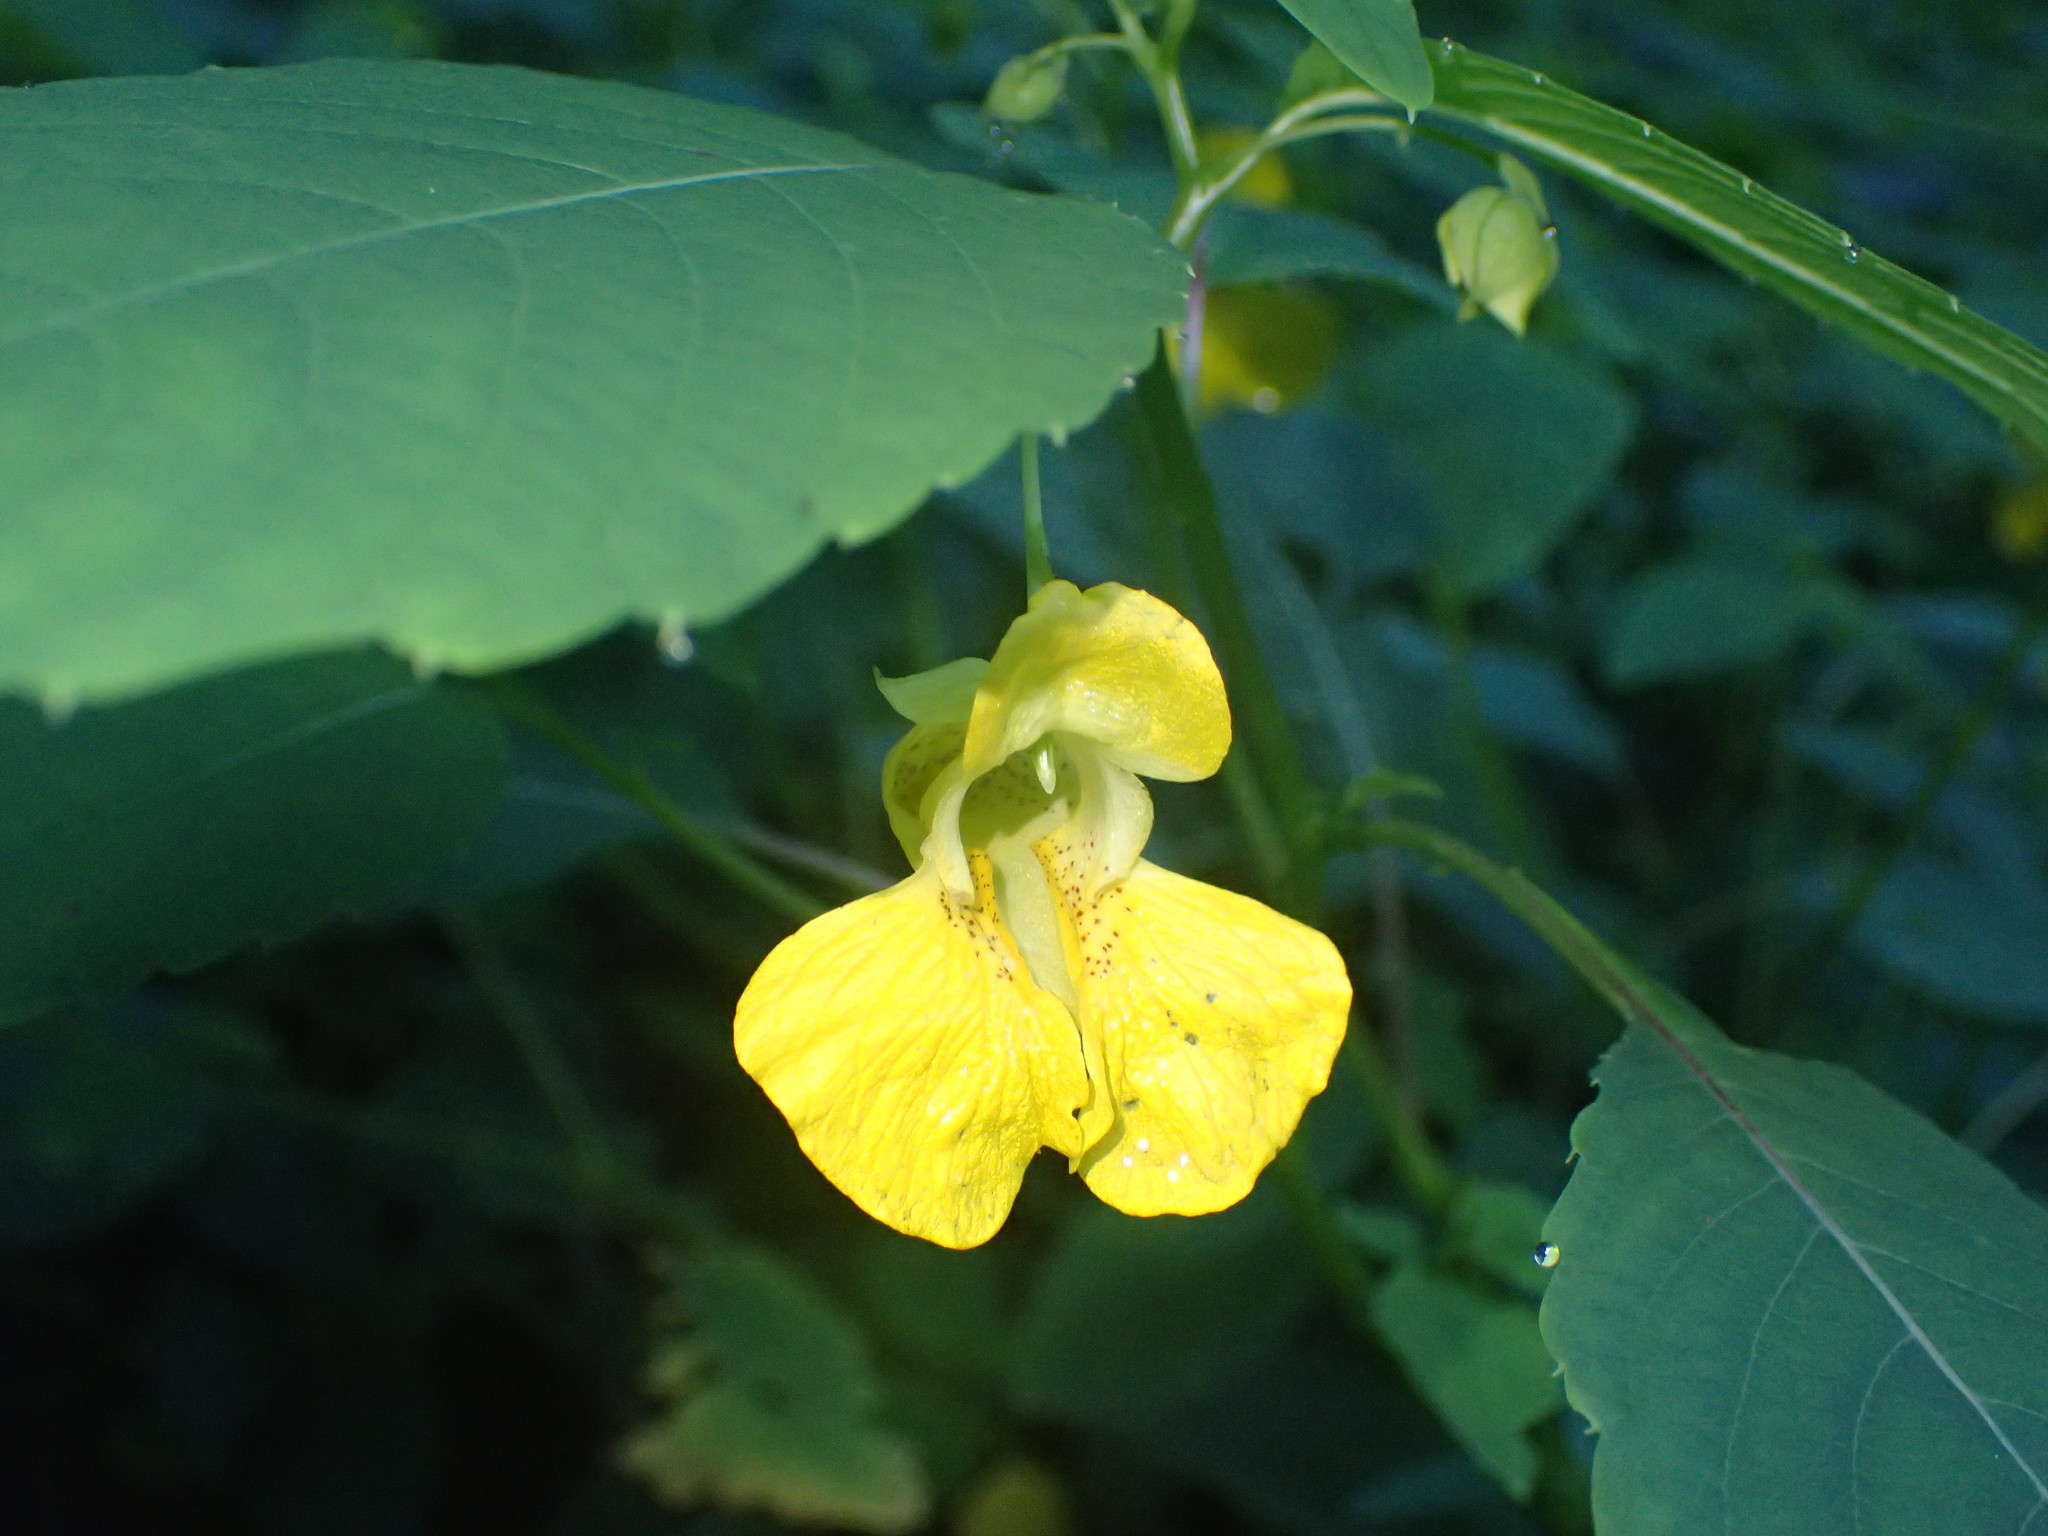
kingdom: Plantae
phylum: Tracheophyta
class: Magnoliopsida
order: Ericales
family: Balsaminaceae
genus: Impatiens
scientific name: Impatiens pallida
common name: Pale snapweed
